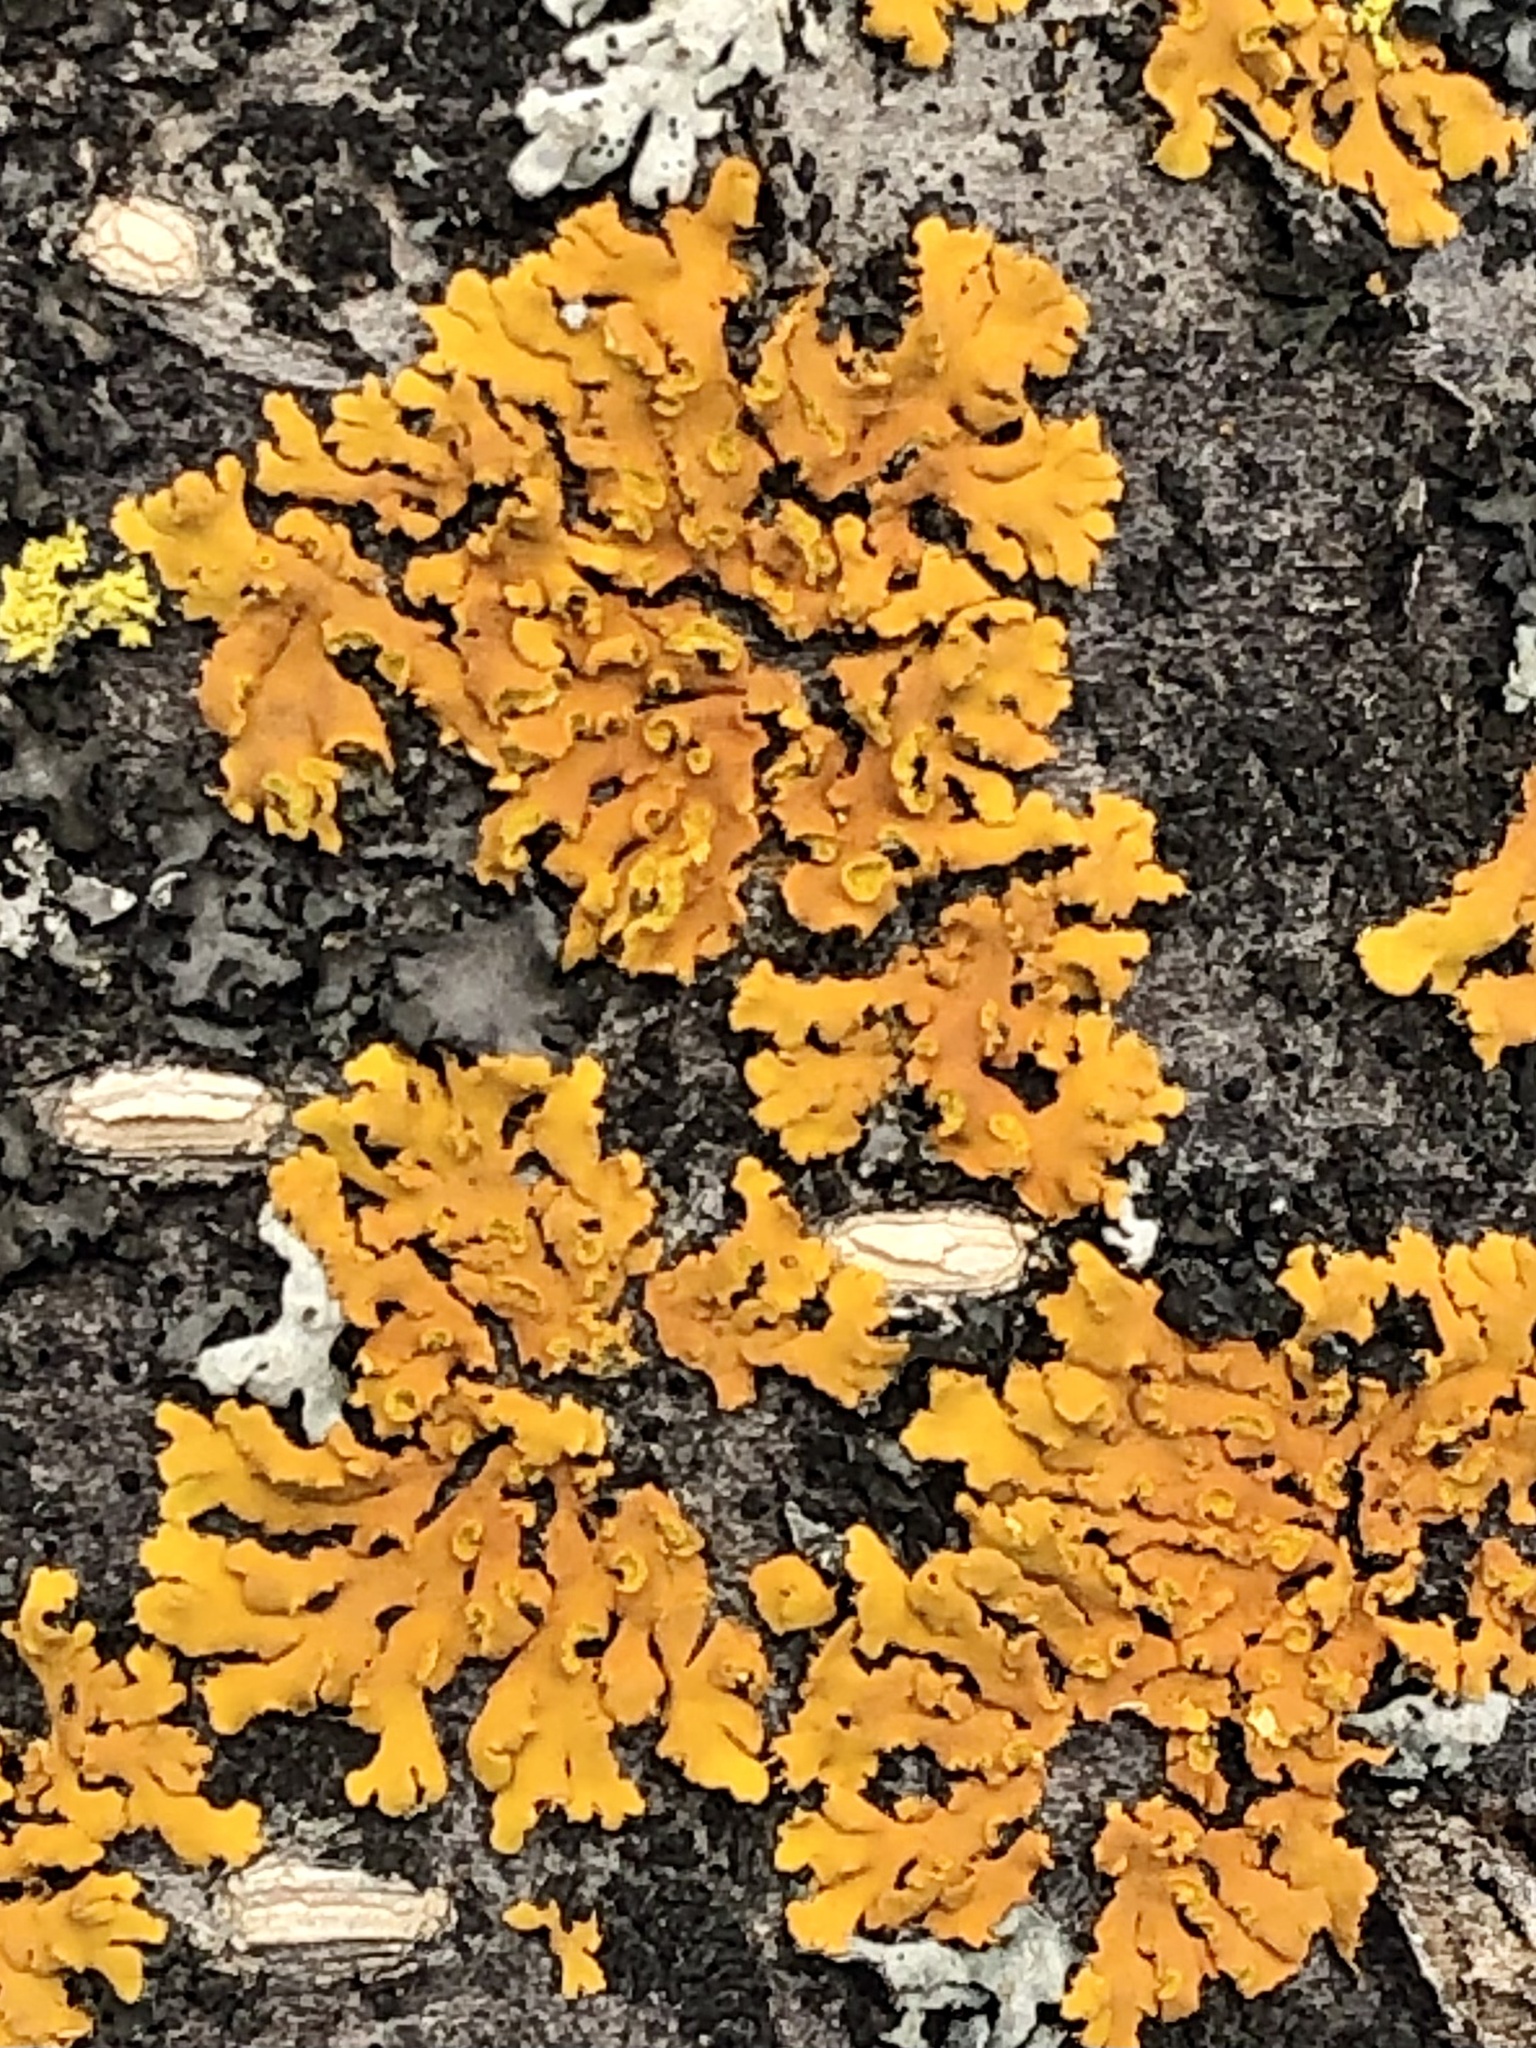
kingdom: Fungi
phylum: Ascomycota
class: Lecanoromycetes
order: Teloschistales
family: Teloschistaceae
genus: Oxneria
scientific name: Oxneria fallax
